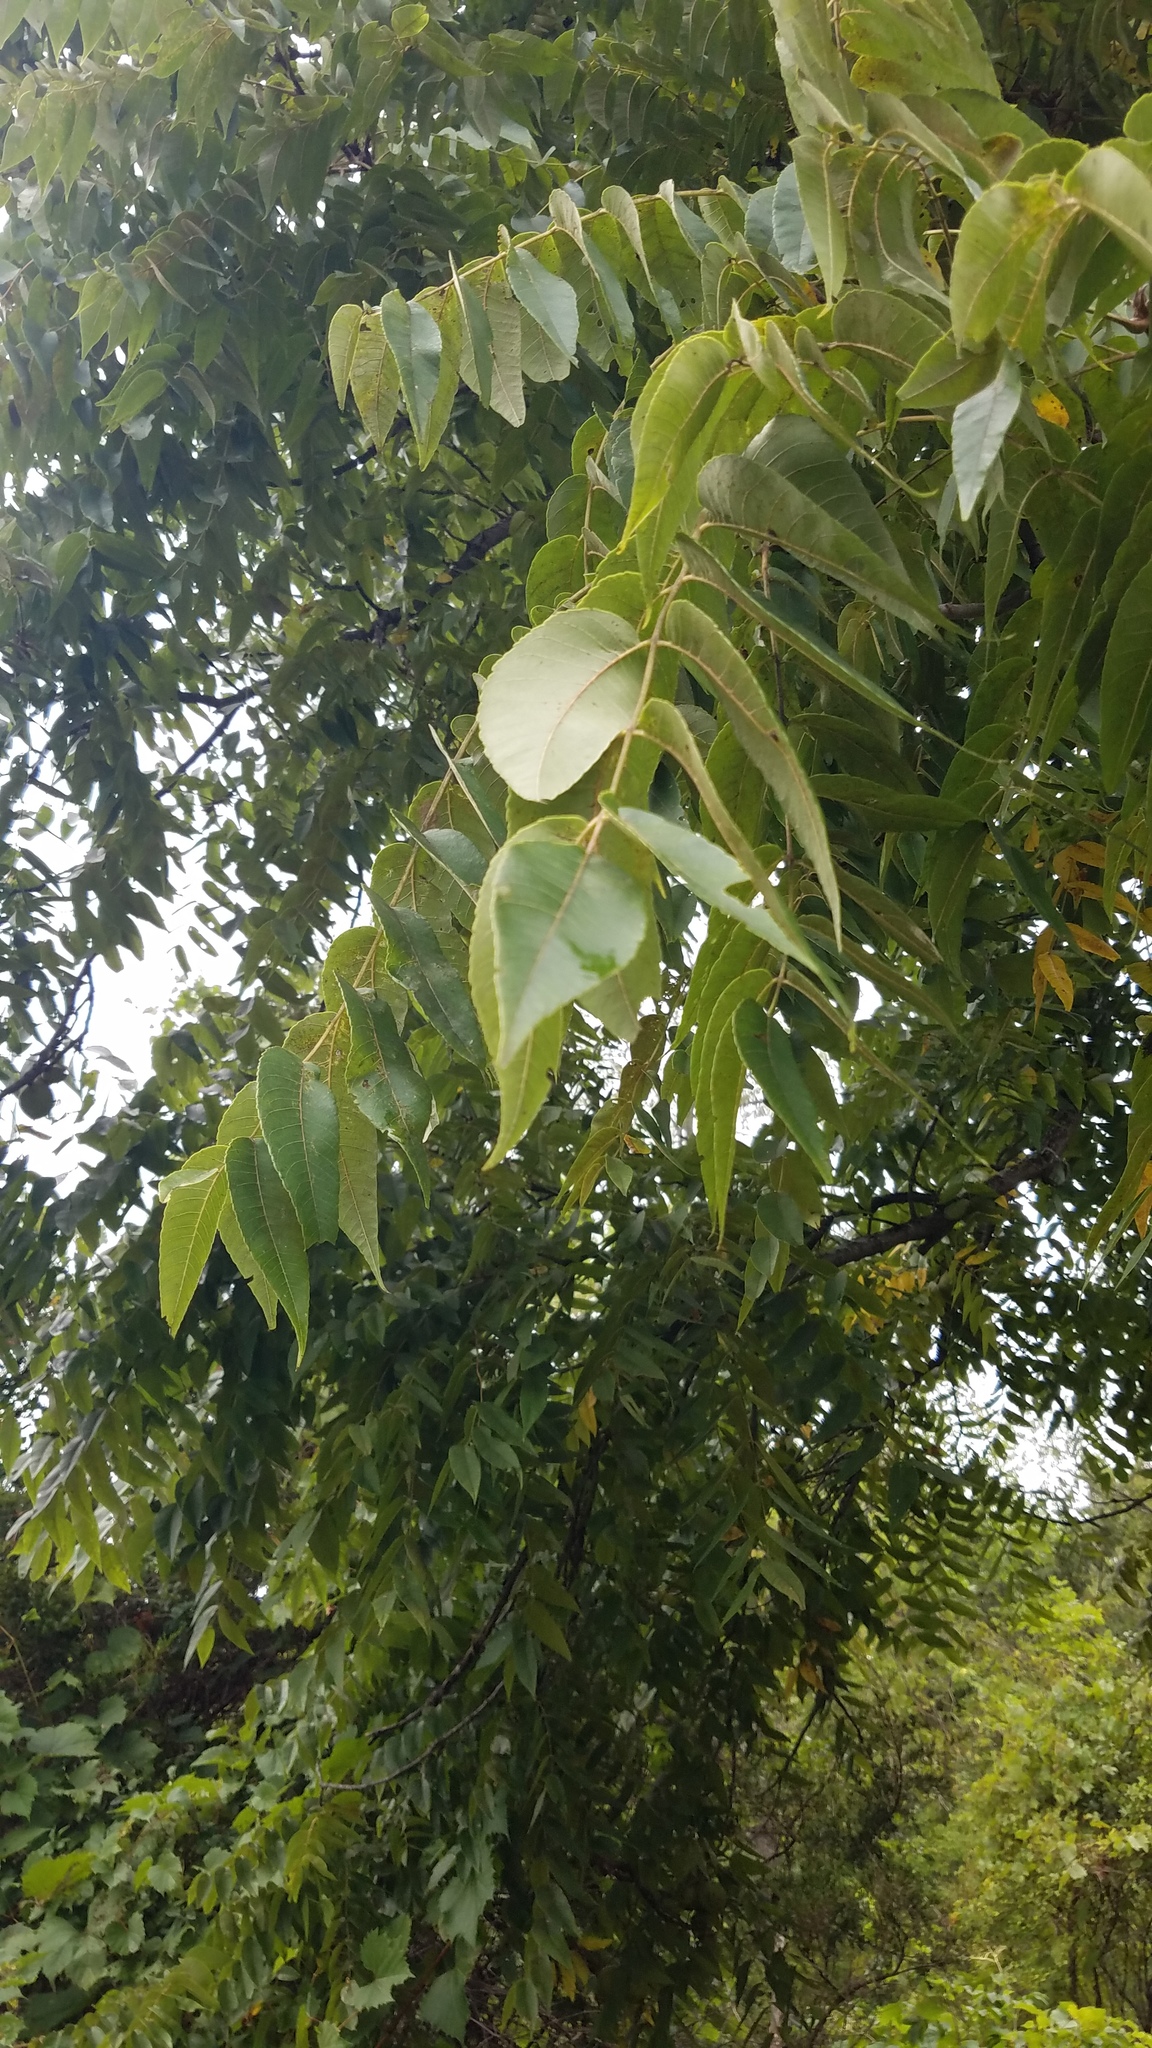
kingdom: Plantae
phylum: Tracheophyta
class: Magnoliopsida
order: Fagales
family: Juglandaceae
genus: Juglans
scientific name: Juglans nigra
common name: Black walnut
